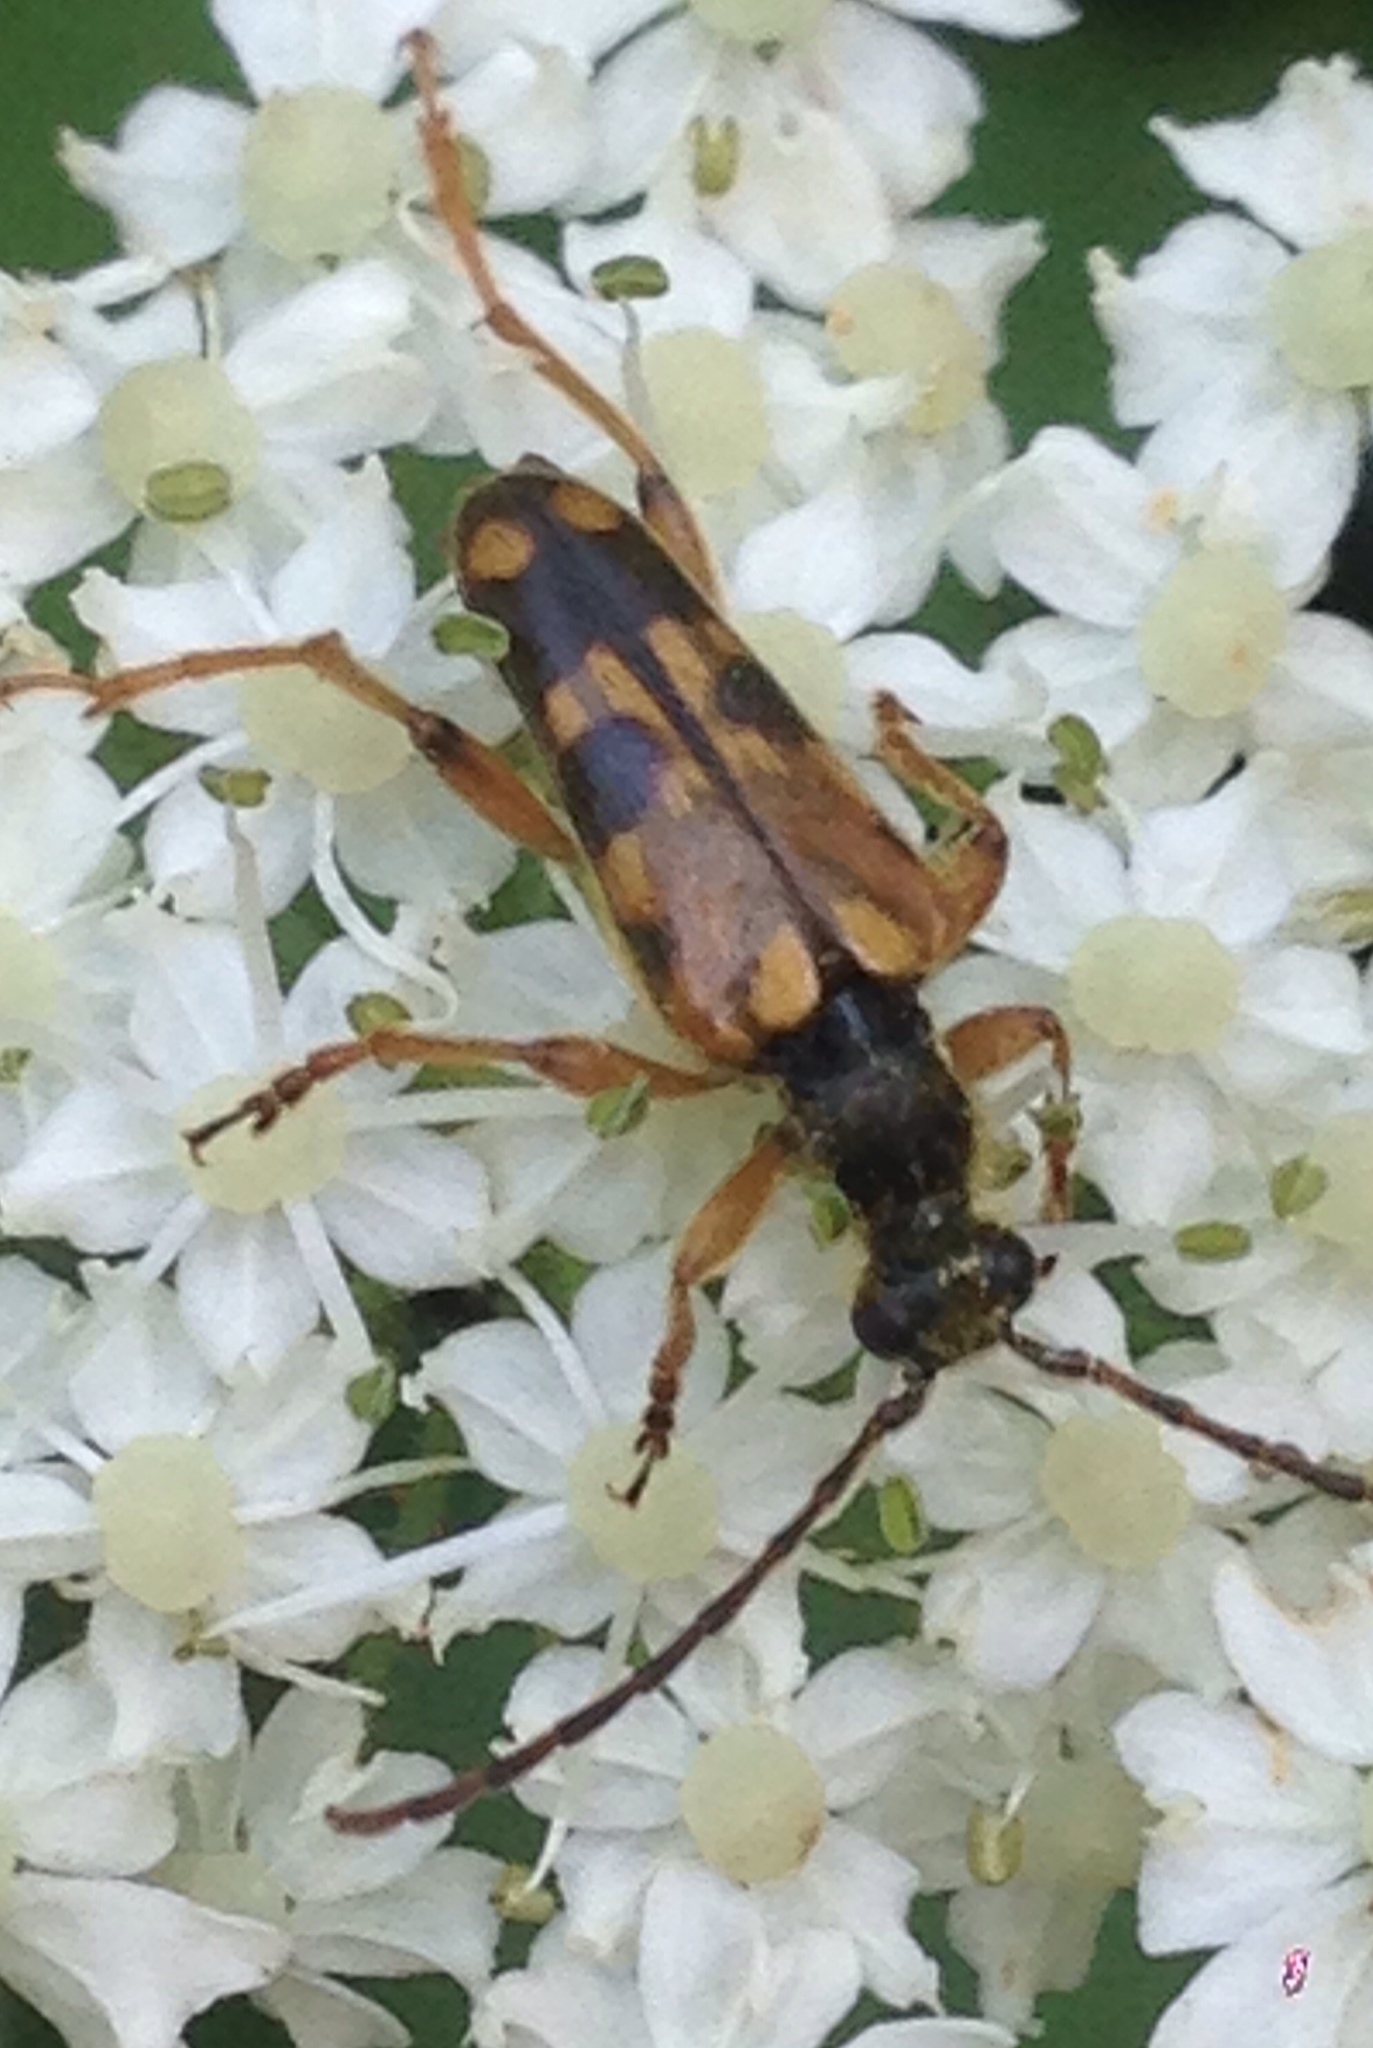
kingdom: Animalia
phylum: Arthropoda
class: Insecta
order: Coleoptera
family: Cerambycidae
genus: Xestoleptura
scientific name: Xestoleptura crassipes
